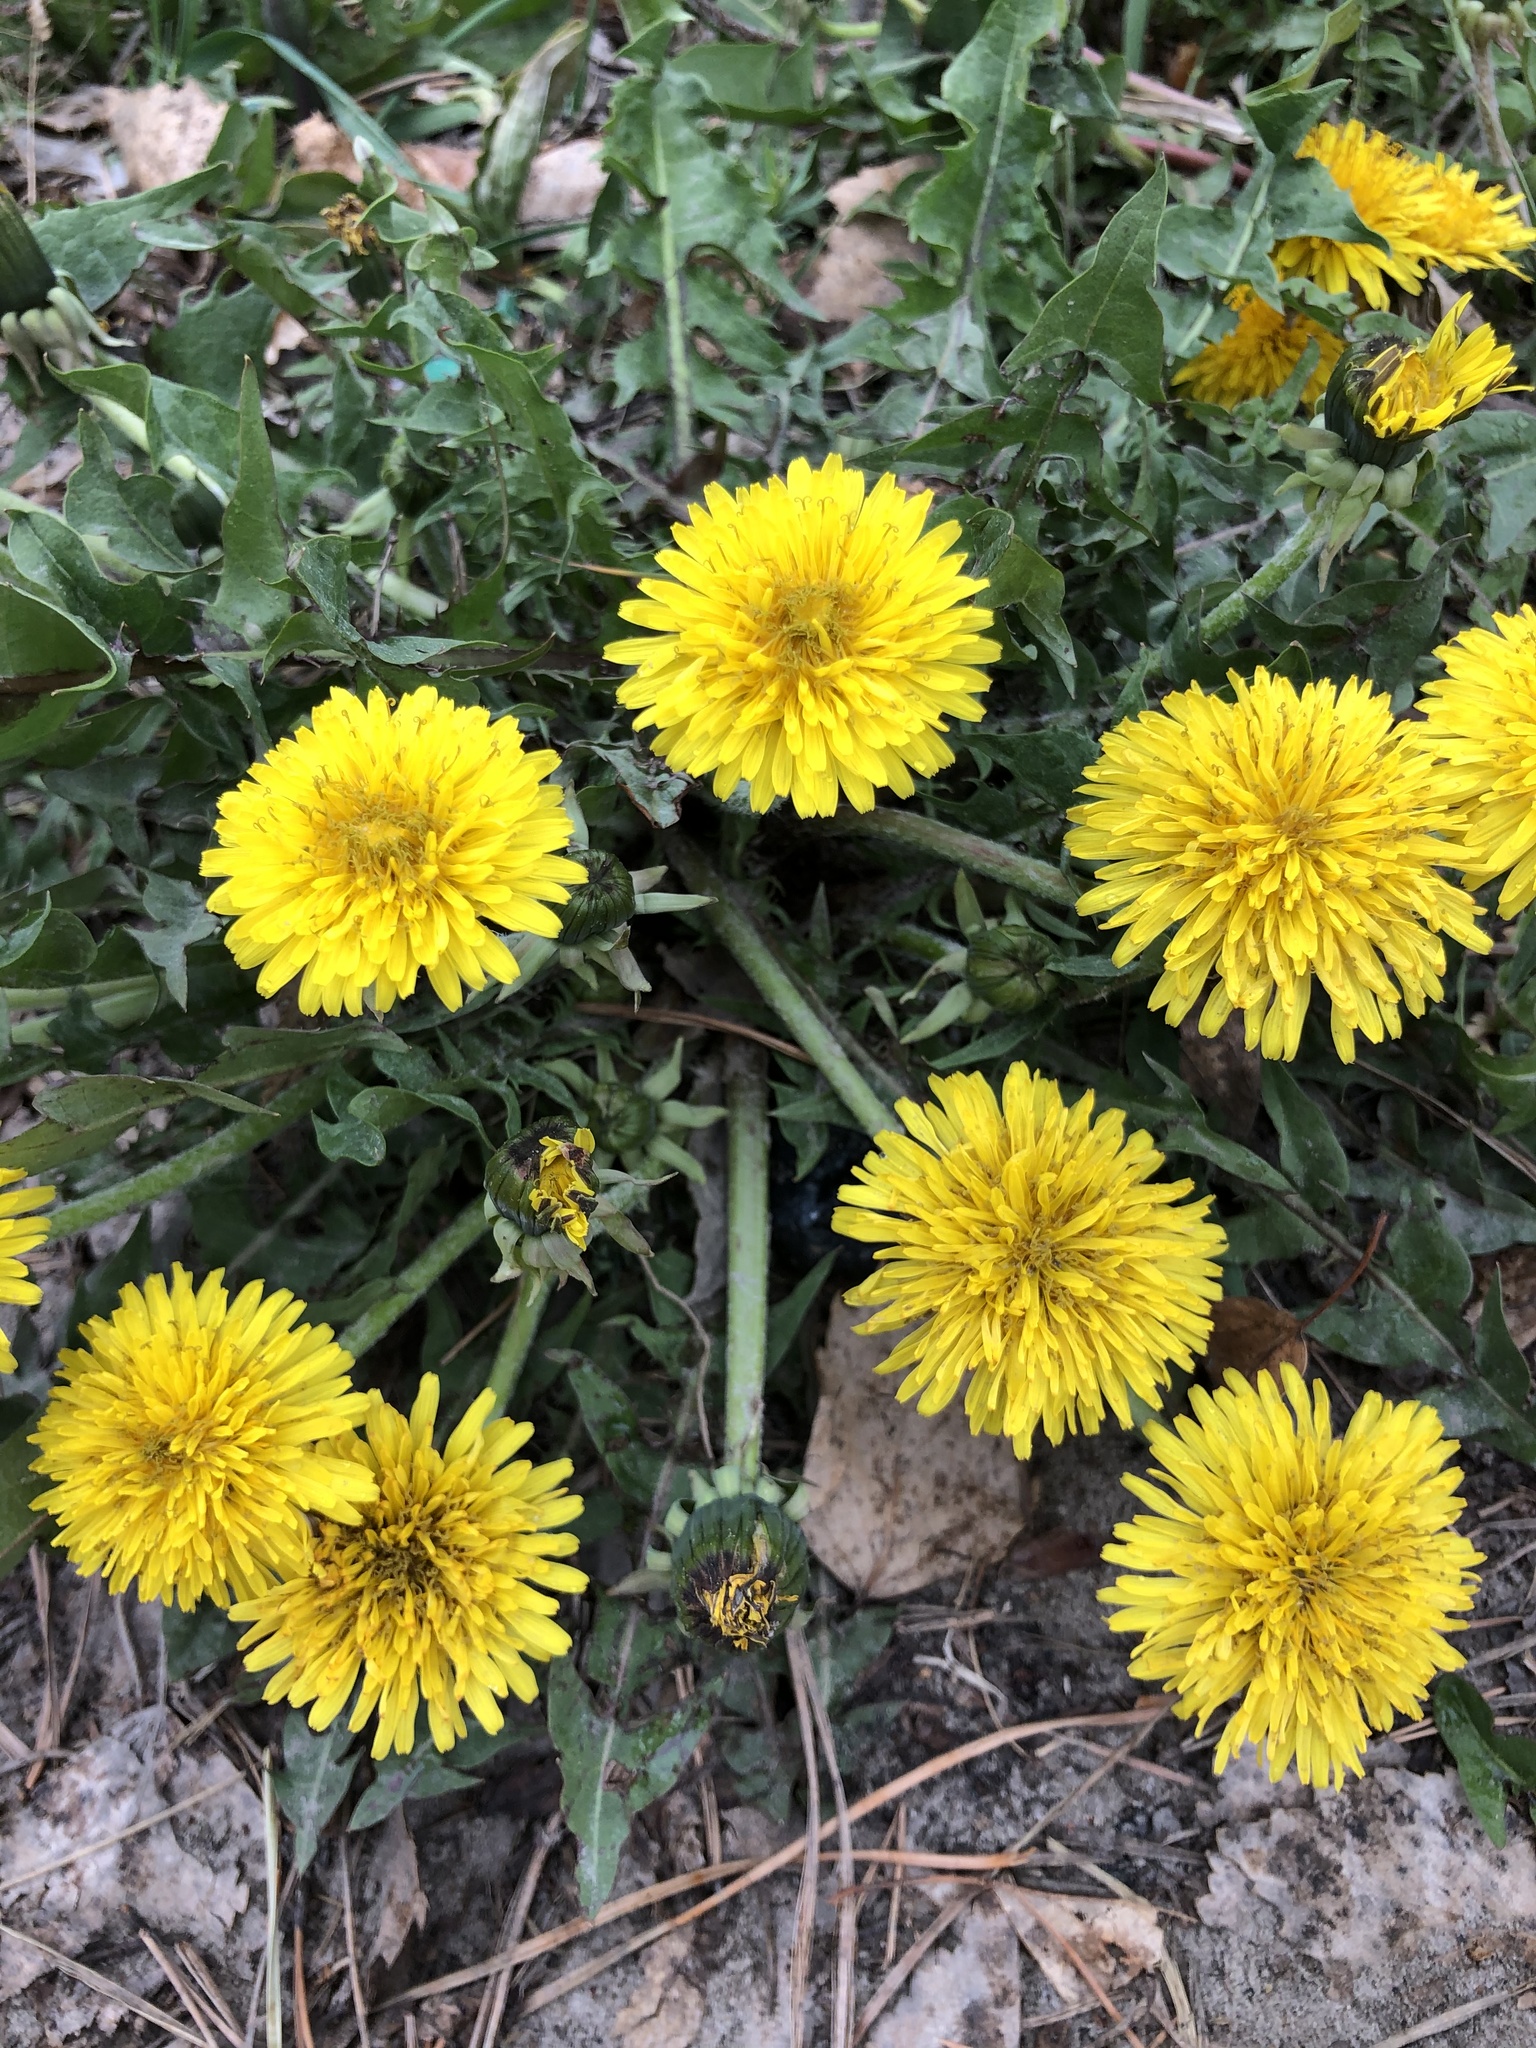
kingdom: Plantae
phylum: Tracheophyta
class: Magnoliopsida
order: Asterales
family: Asteraceae
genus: Taraxacum
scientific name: Taraxacum officinale
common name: Common dandelion
